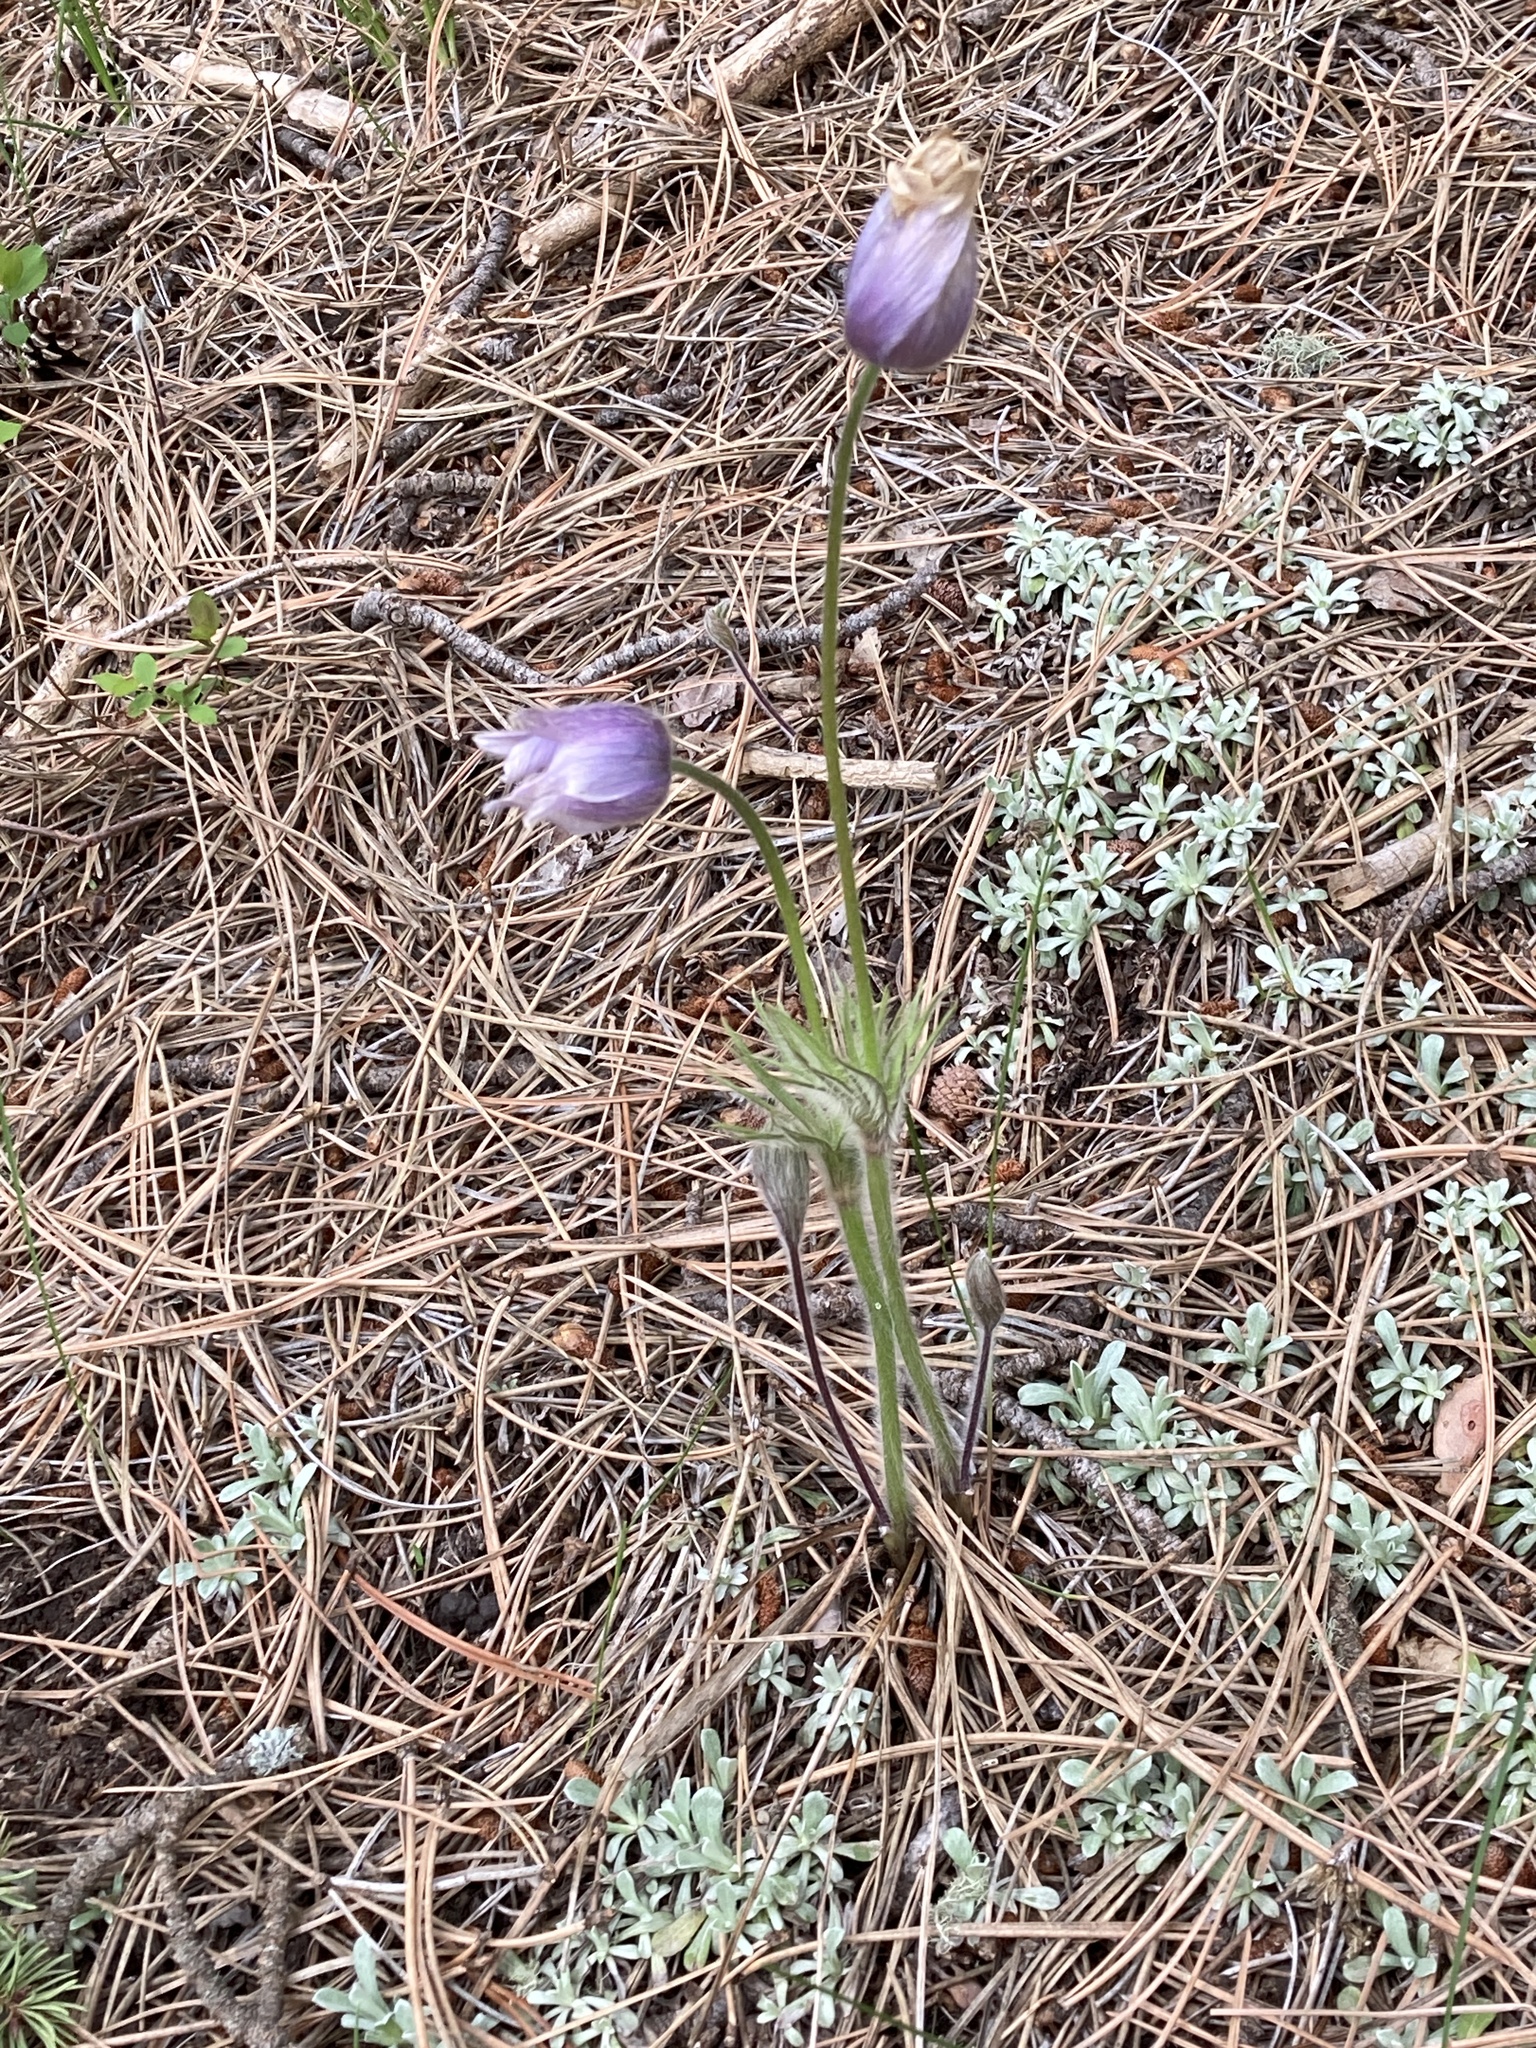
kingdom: Plantae
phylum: Tracheophyta
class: Magnoliopsida
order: Ranunculales
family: Ranunculaceae
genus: Pulsatilla
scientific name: Pulsatilla nuttalliana
